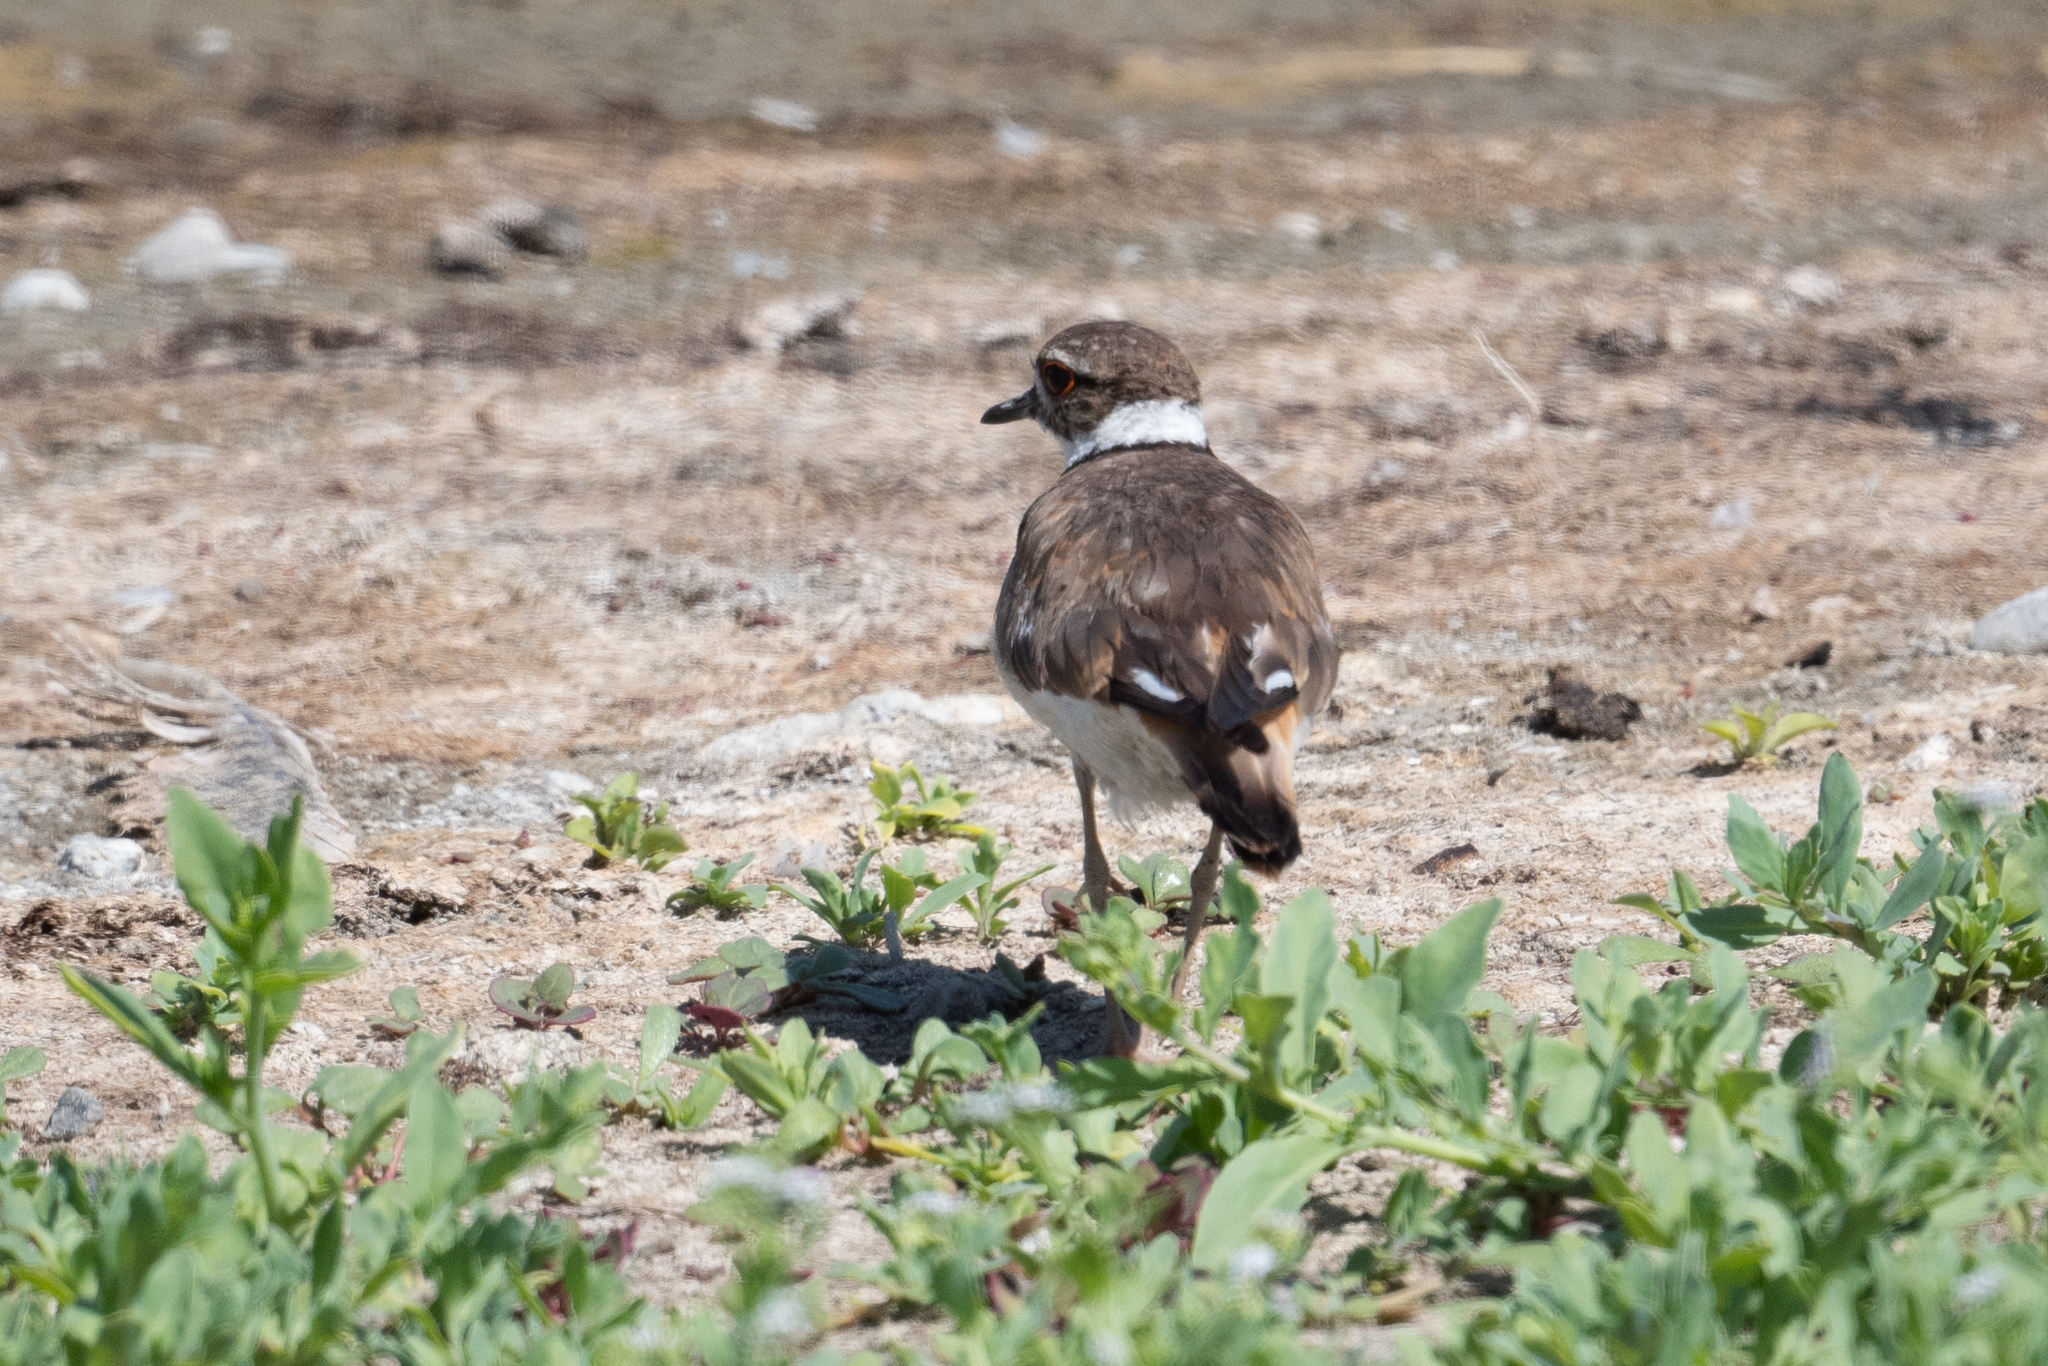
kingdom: Animalia
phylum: Chordata
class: Aves
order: Charadriiformes
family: Charadriidae
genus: Charadrius
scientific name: Charadrius vociferus
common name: Killdeer
